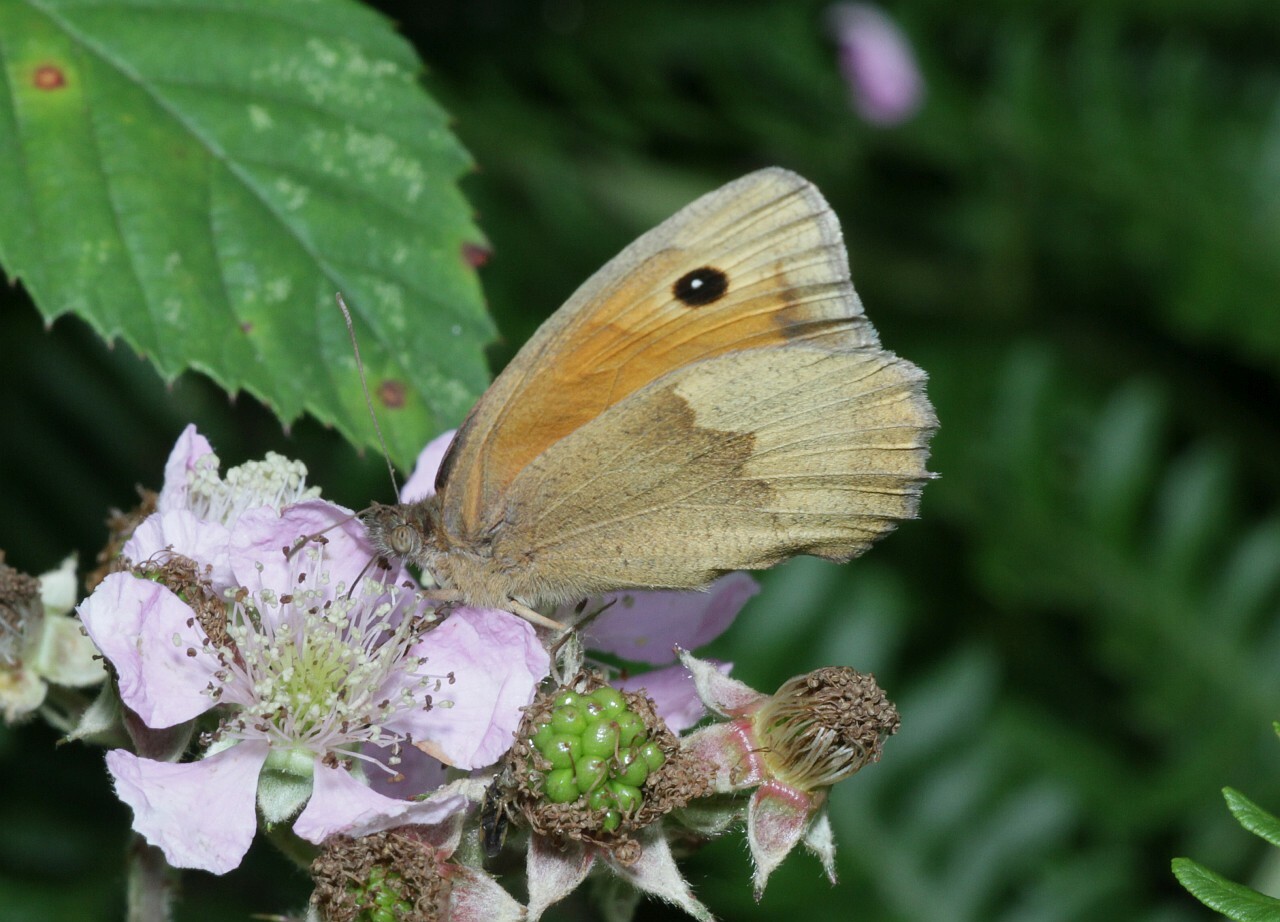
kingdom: Animalia
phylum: Arthropoda
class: Insecta
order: Lepidoptera
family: Nymphalidae
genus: Maniola
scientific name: Maniola jurtina
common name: Meadow brown
